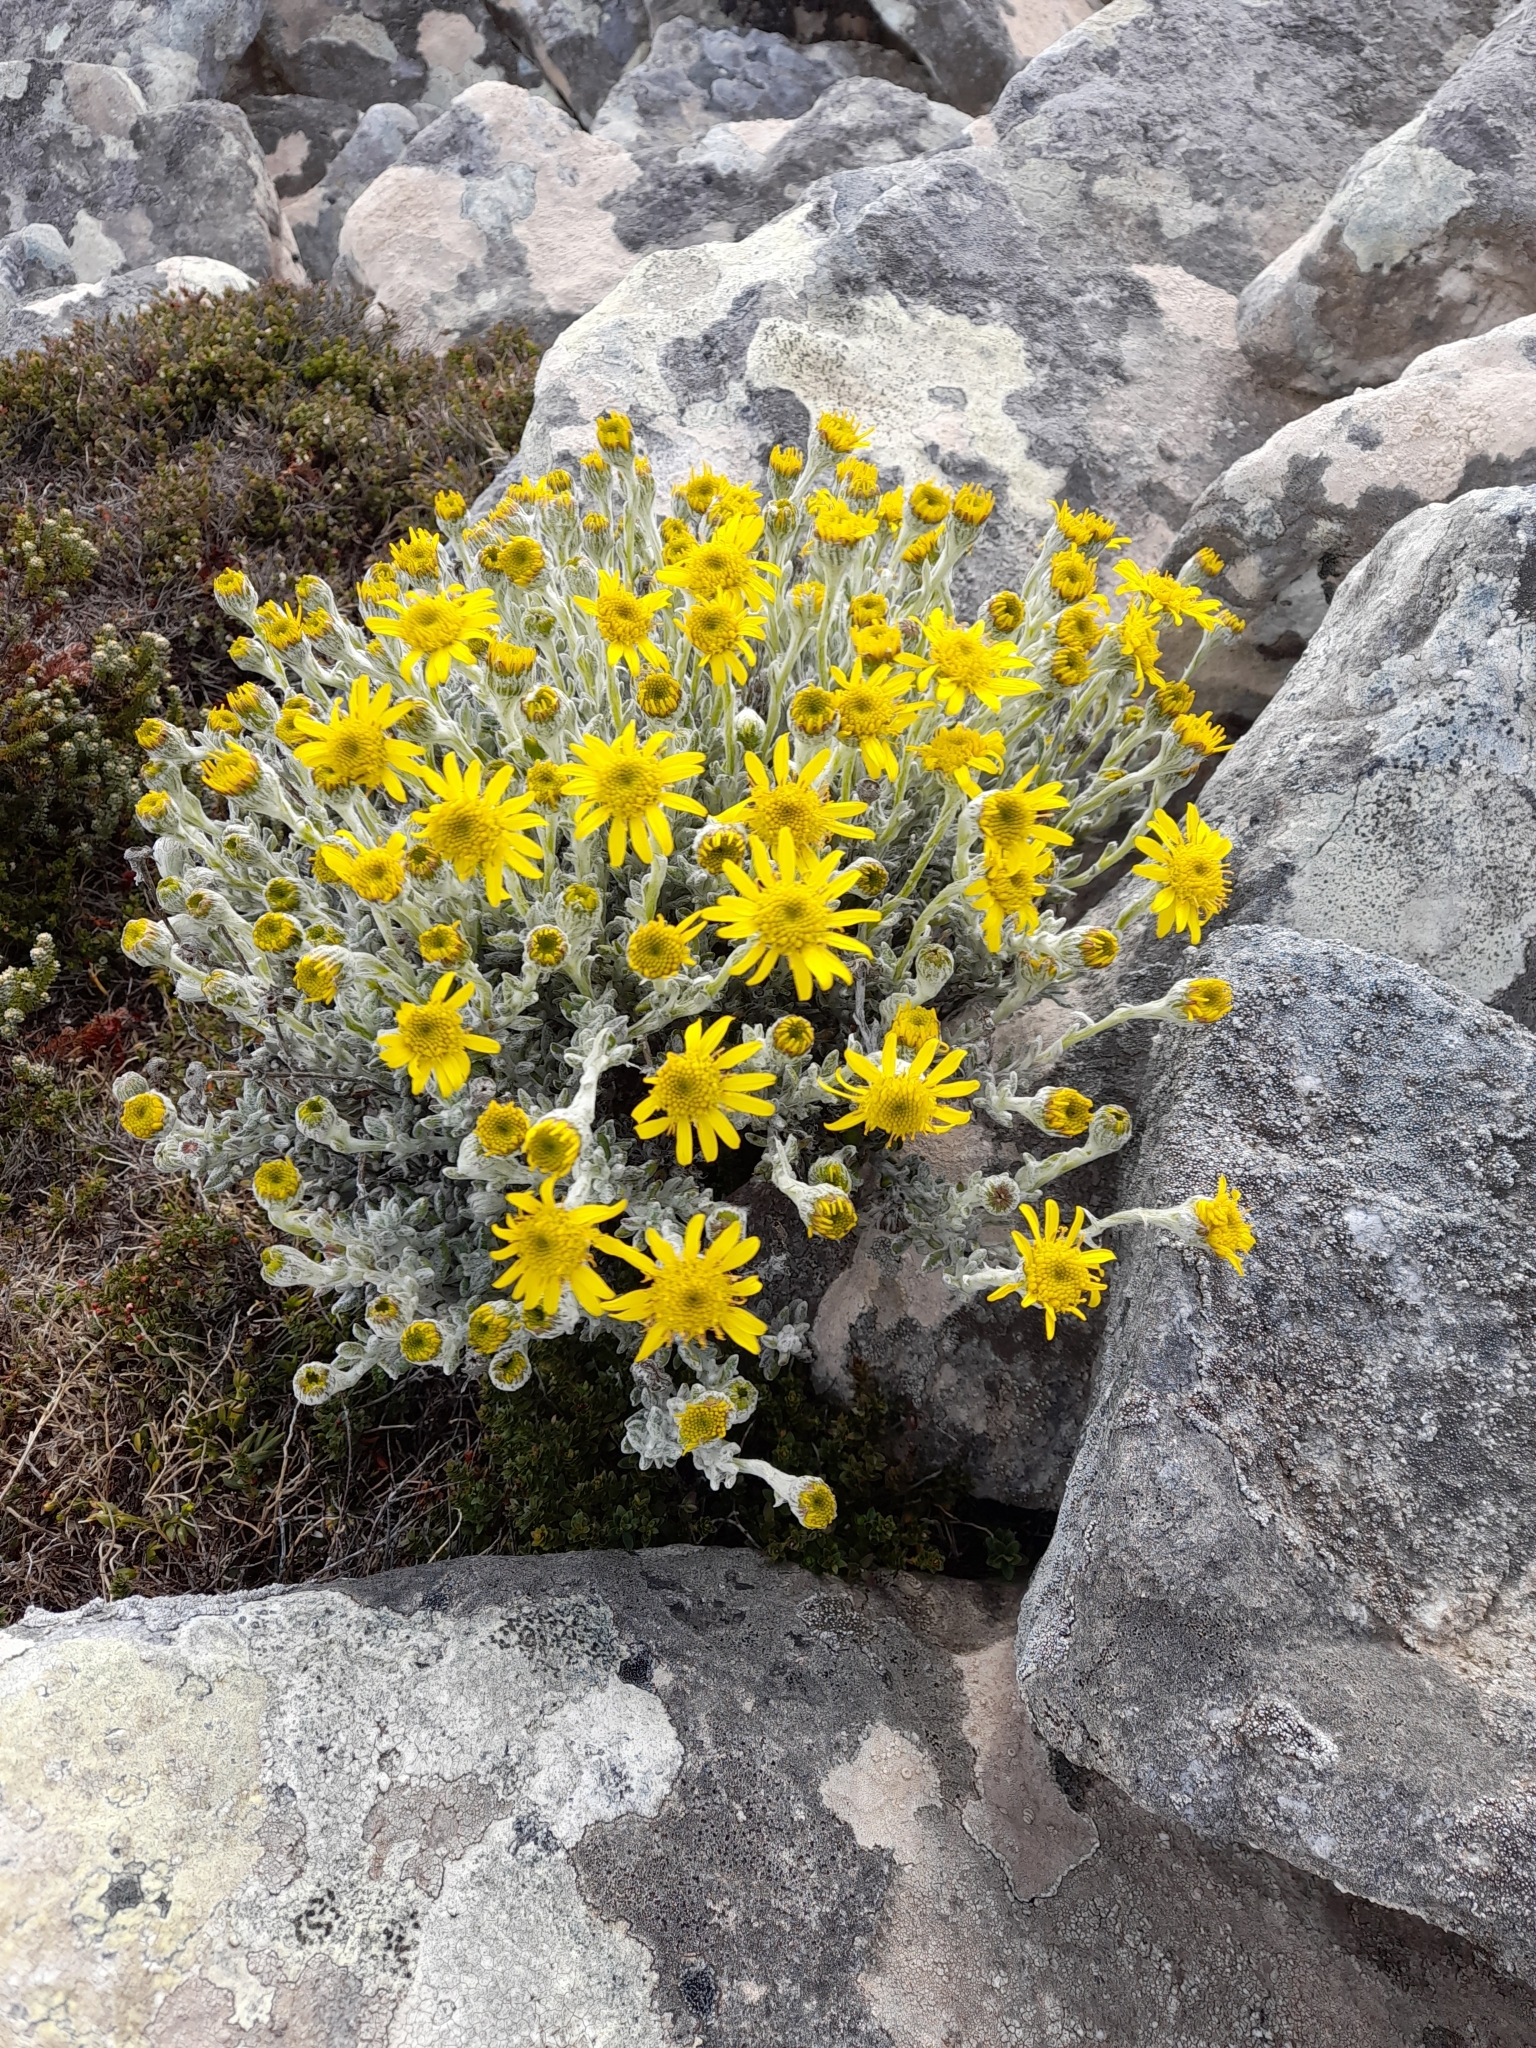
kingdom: Plantae
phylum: Tracheophyta
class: Magnoliopsida
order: Asterales
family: Asteraceae
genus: Senecio
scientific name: Senecio falklandicus
